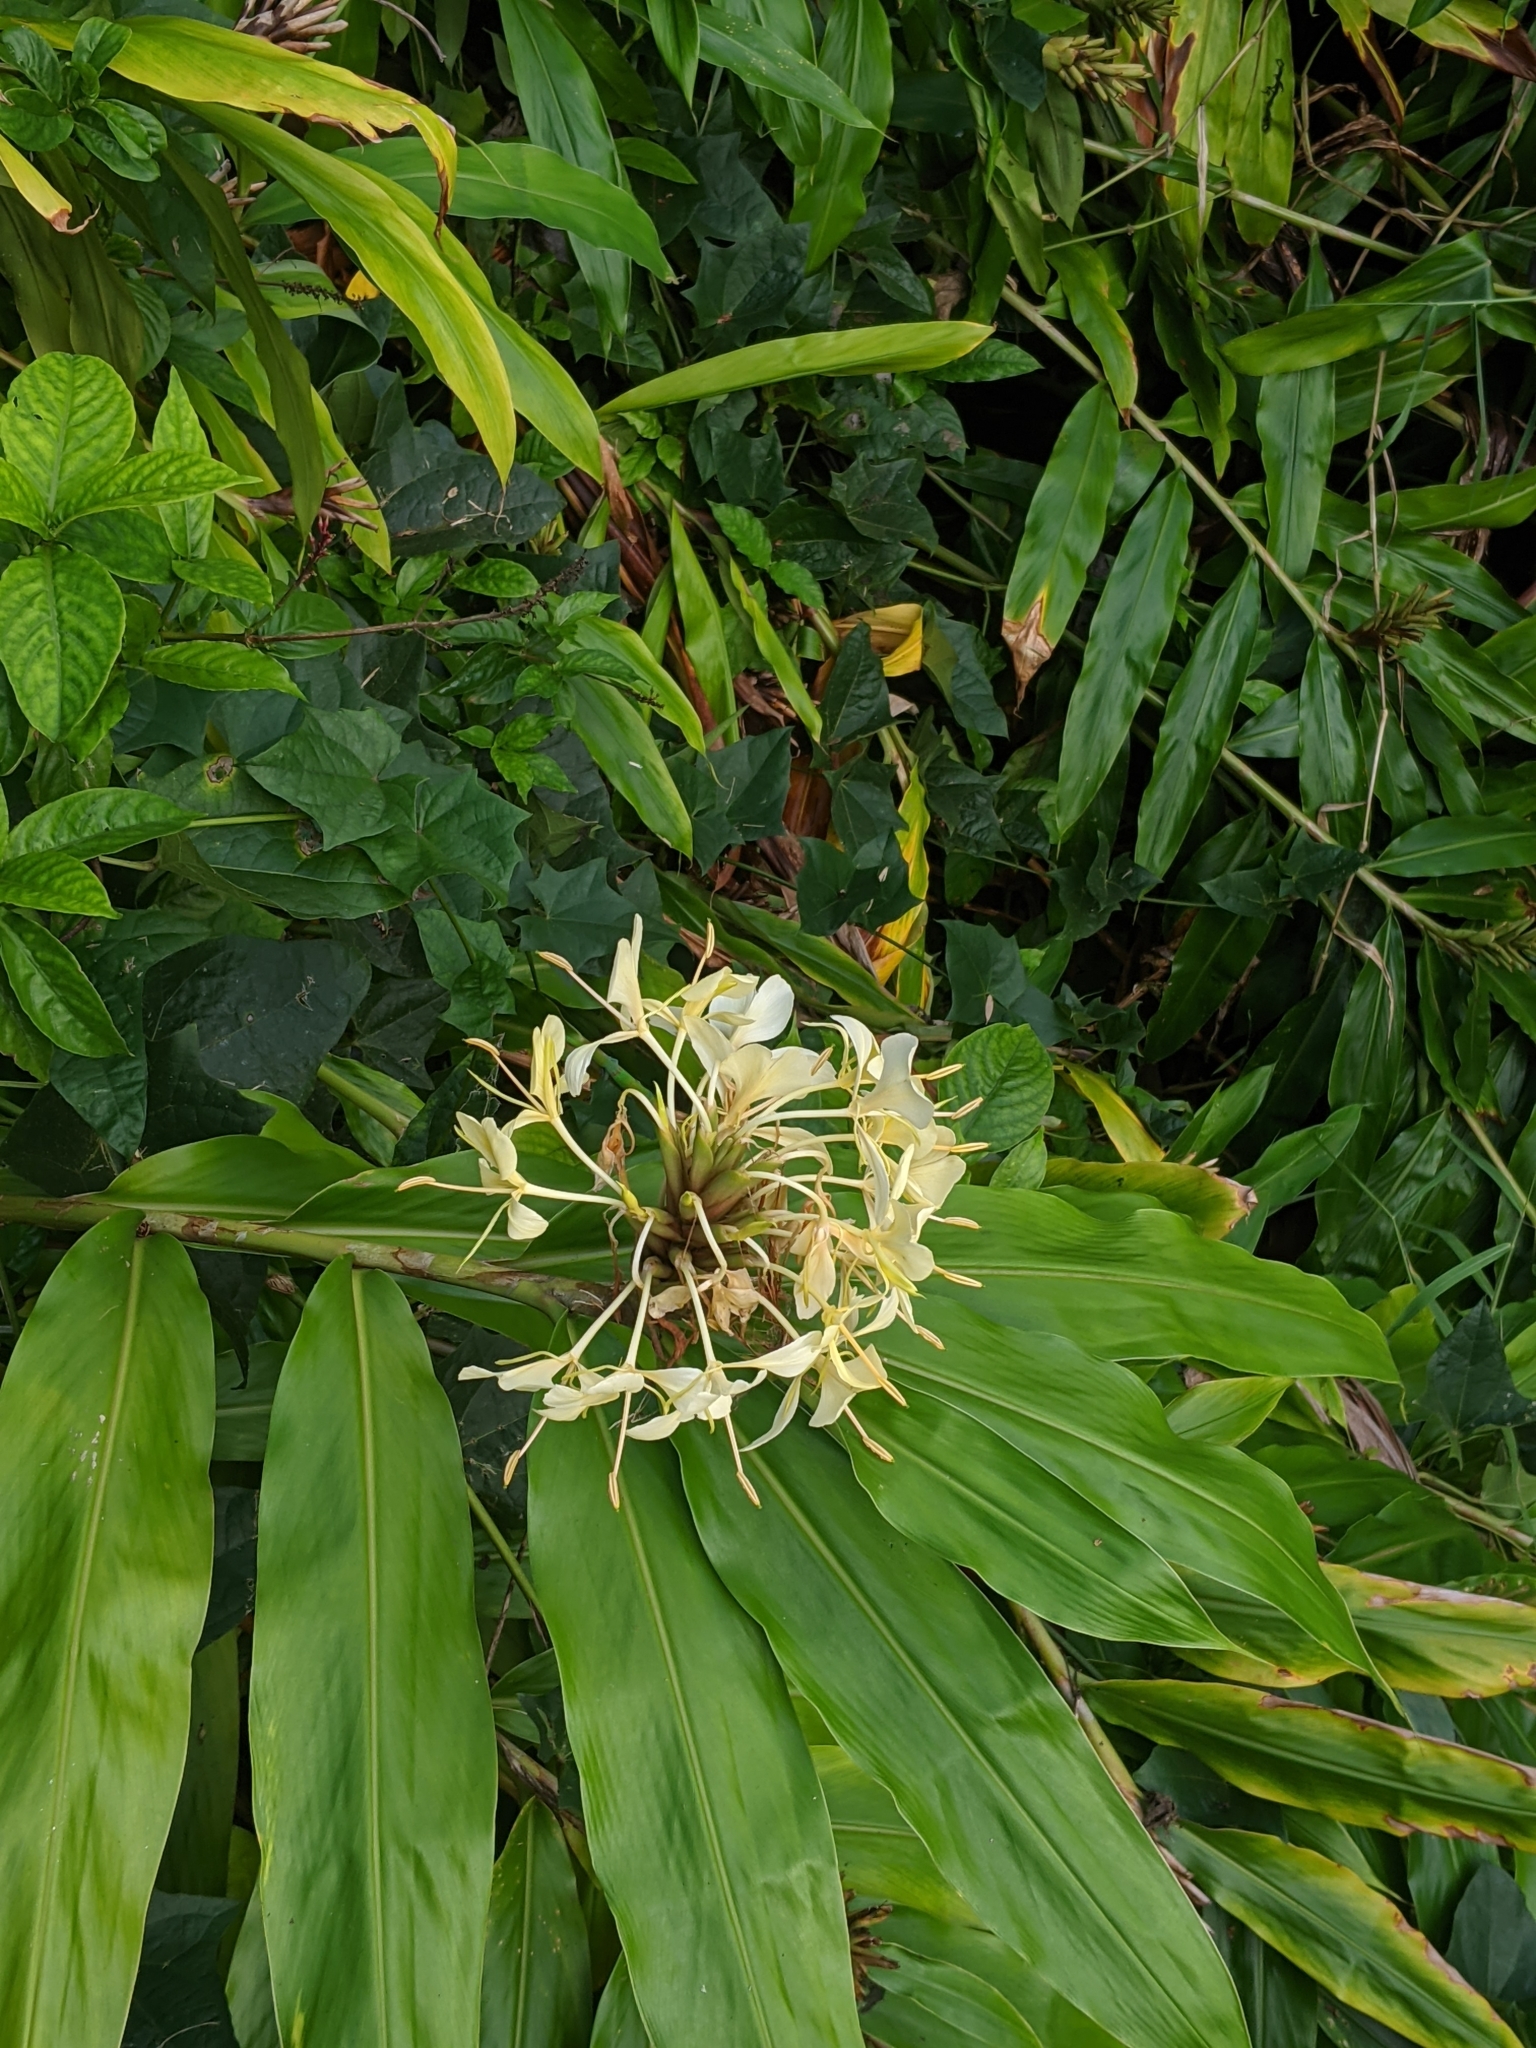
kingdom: Plantae
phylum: Tracheophyta
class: Liliopsida
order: Zingiberales
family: Zingiberaceae
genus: Hedychium
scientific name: Hedychium flavescens
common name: Yellow ginger
